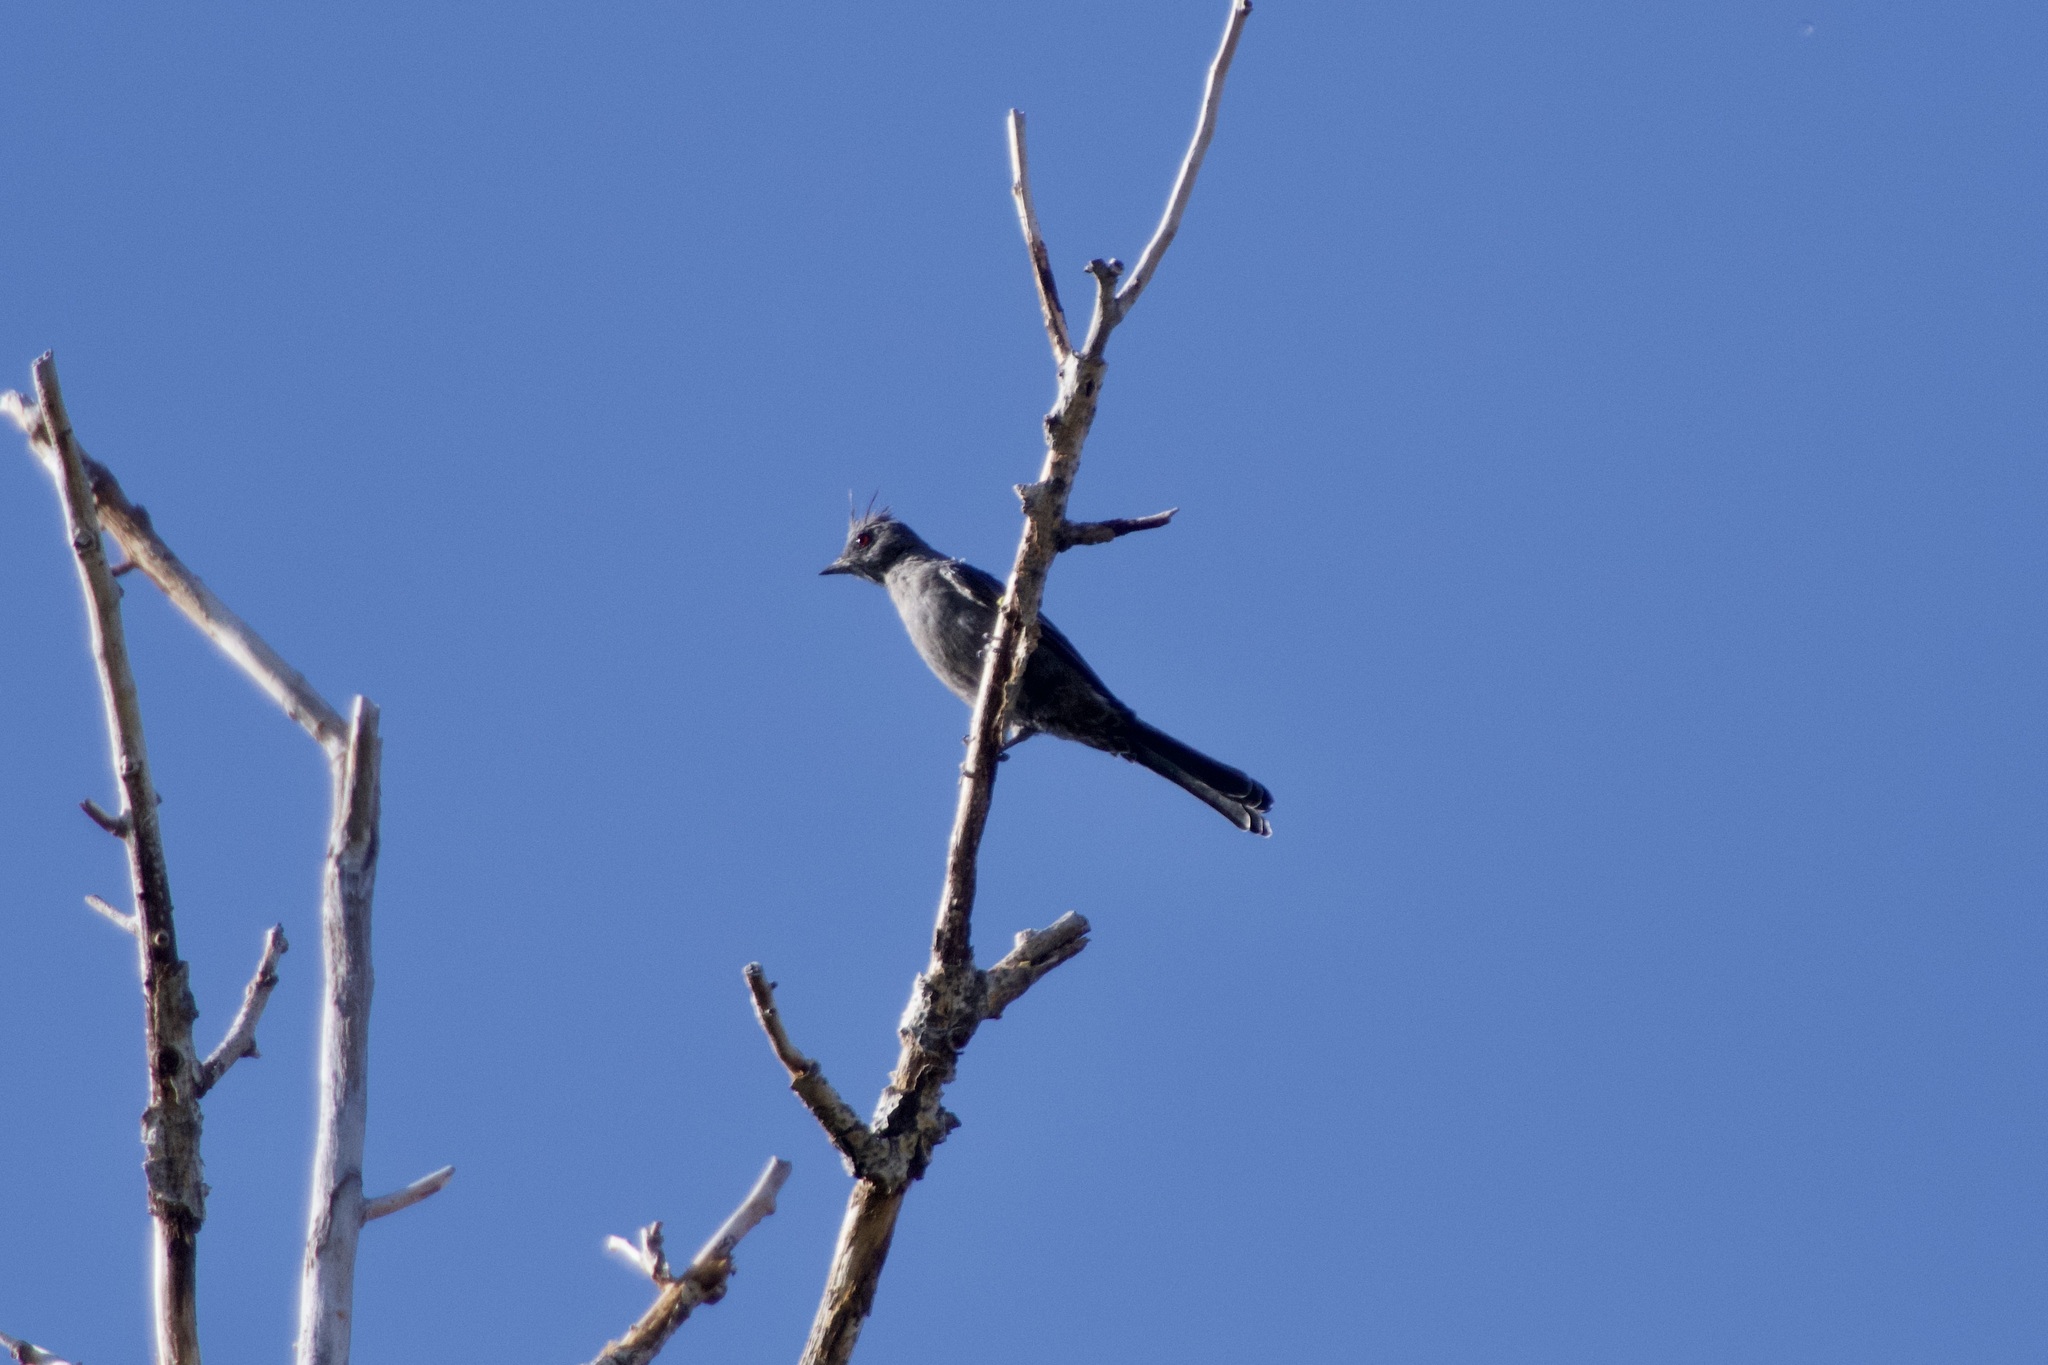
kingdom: Animalia
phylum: Chordata
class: Aves
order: Passeriformes
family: Ptilogonatidae
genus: Phainopepla
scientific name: Phainopepla nitens
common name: Phainopepla
